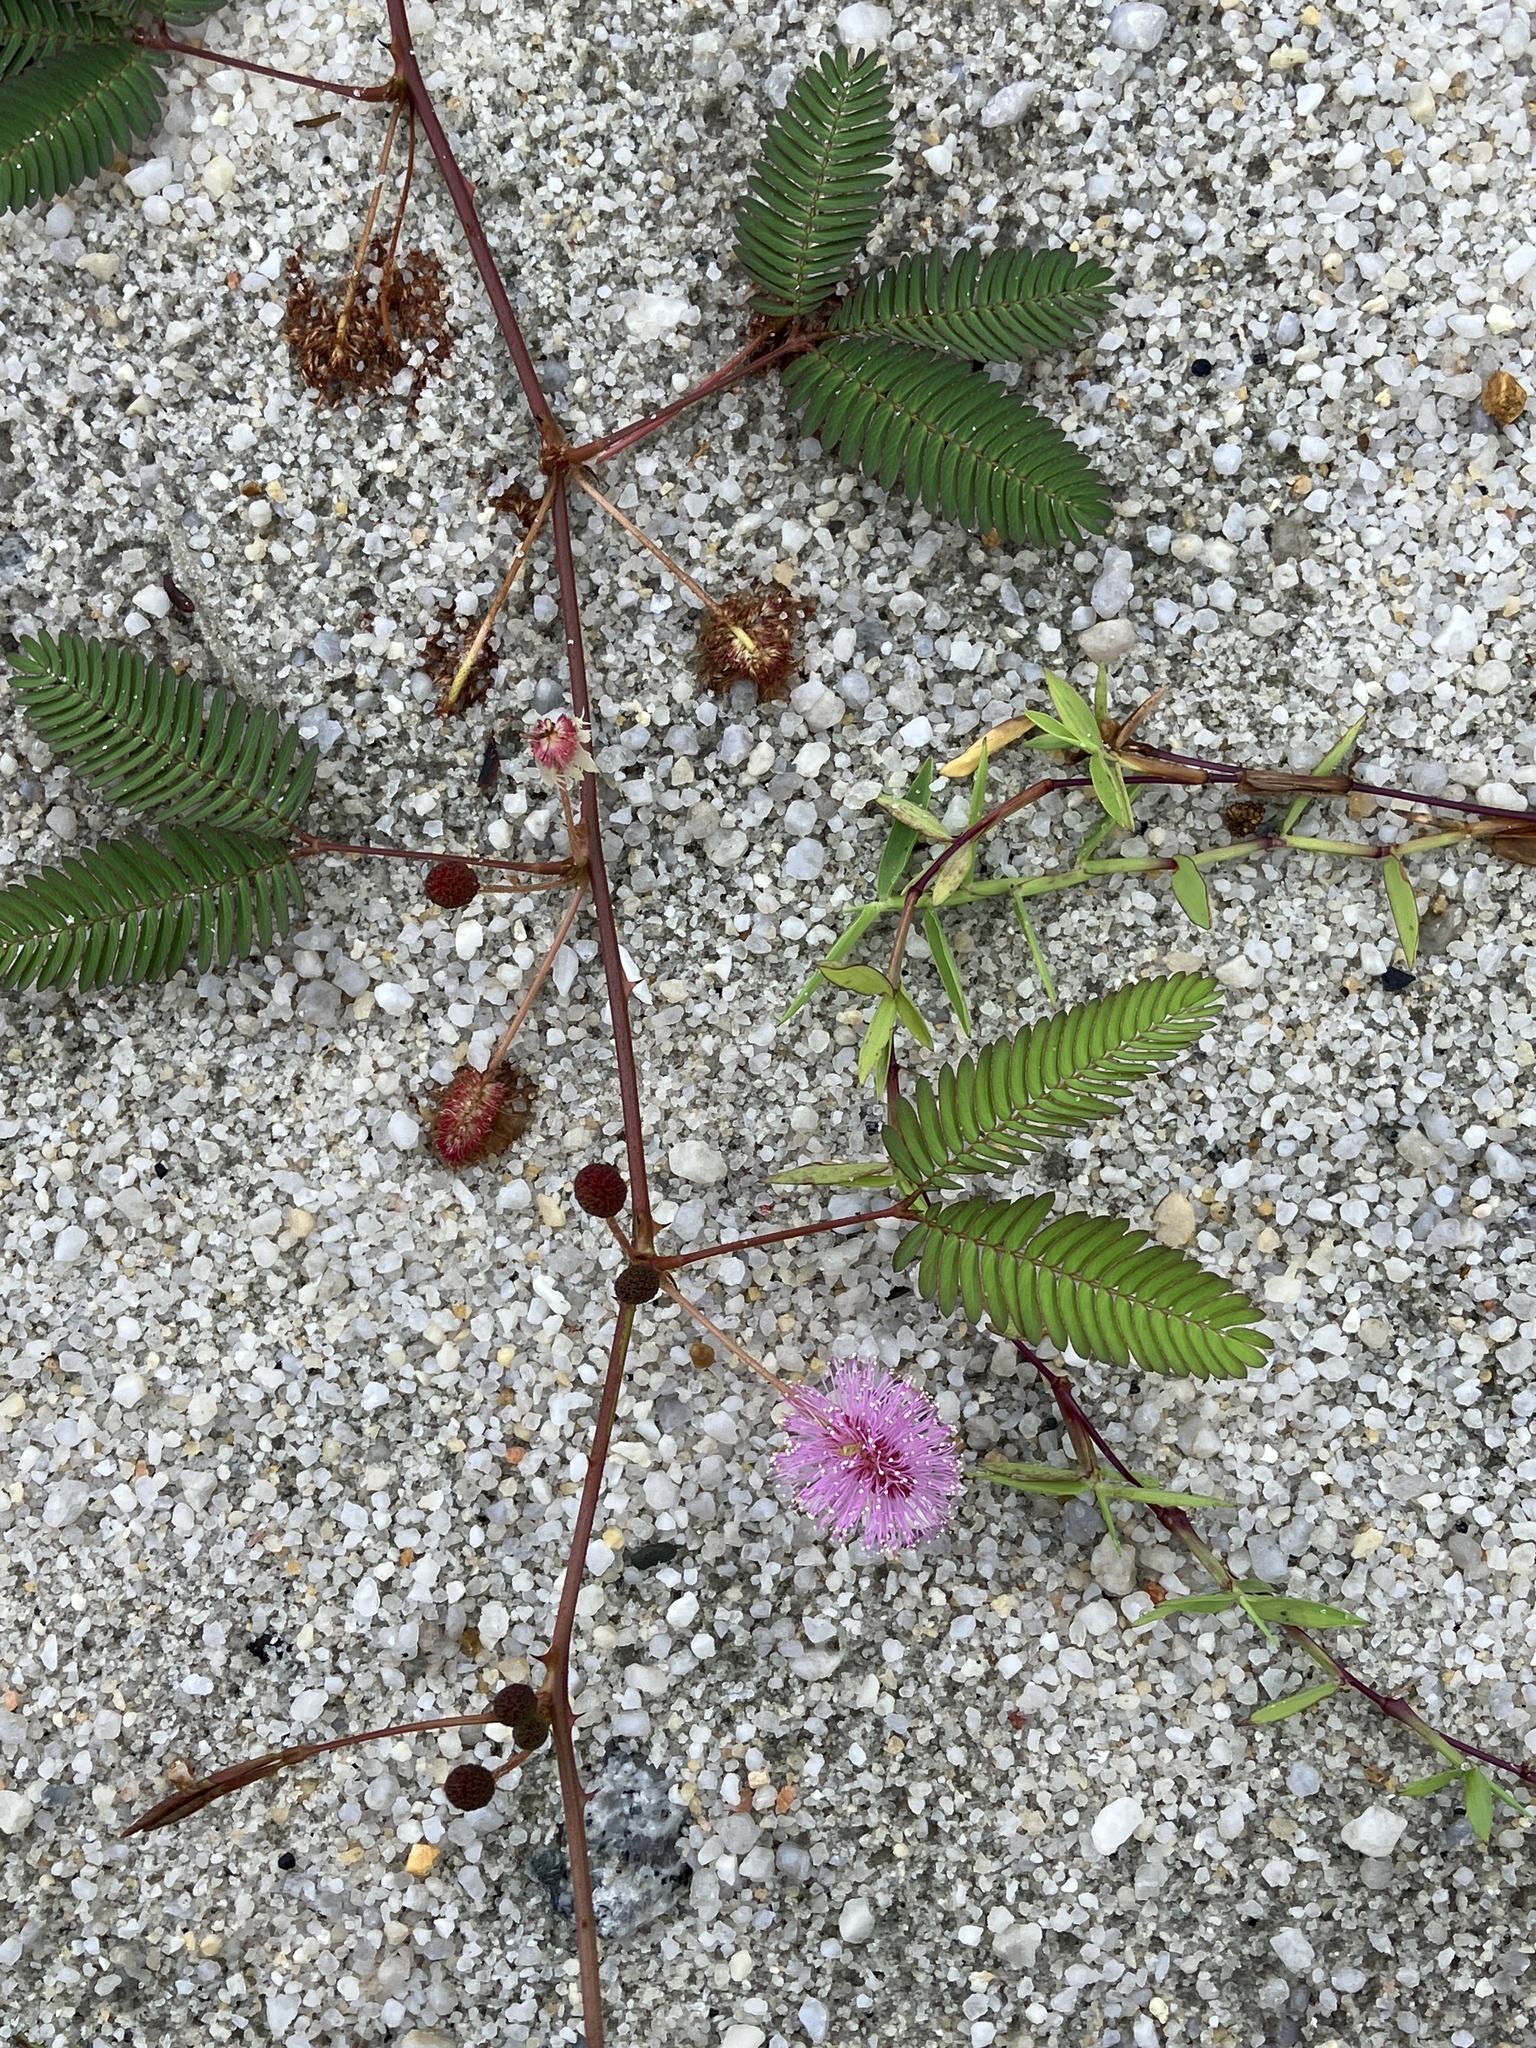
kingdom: Plantae
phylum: Tracheophyta
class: Magnoliopsida
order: Fabales
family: Fabaceae
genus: Mimosa
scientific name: Mimosa pudica
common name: Sensitive plant
